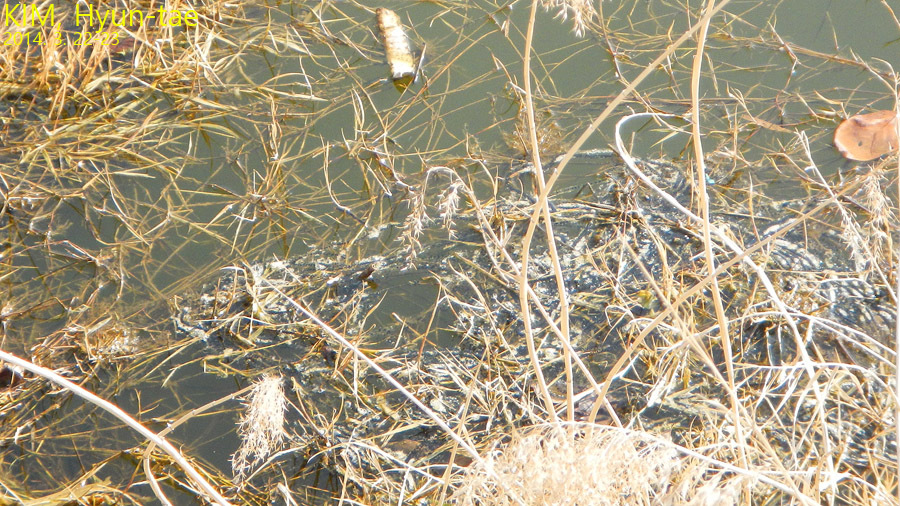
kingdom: Animalia
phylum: Chordata
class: Amphibia
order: Anura
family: Bufonidae
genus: Bufo
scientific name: Bufo gargarizans
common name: Asiatic toad
